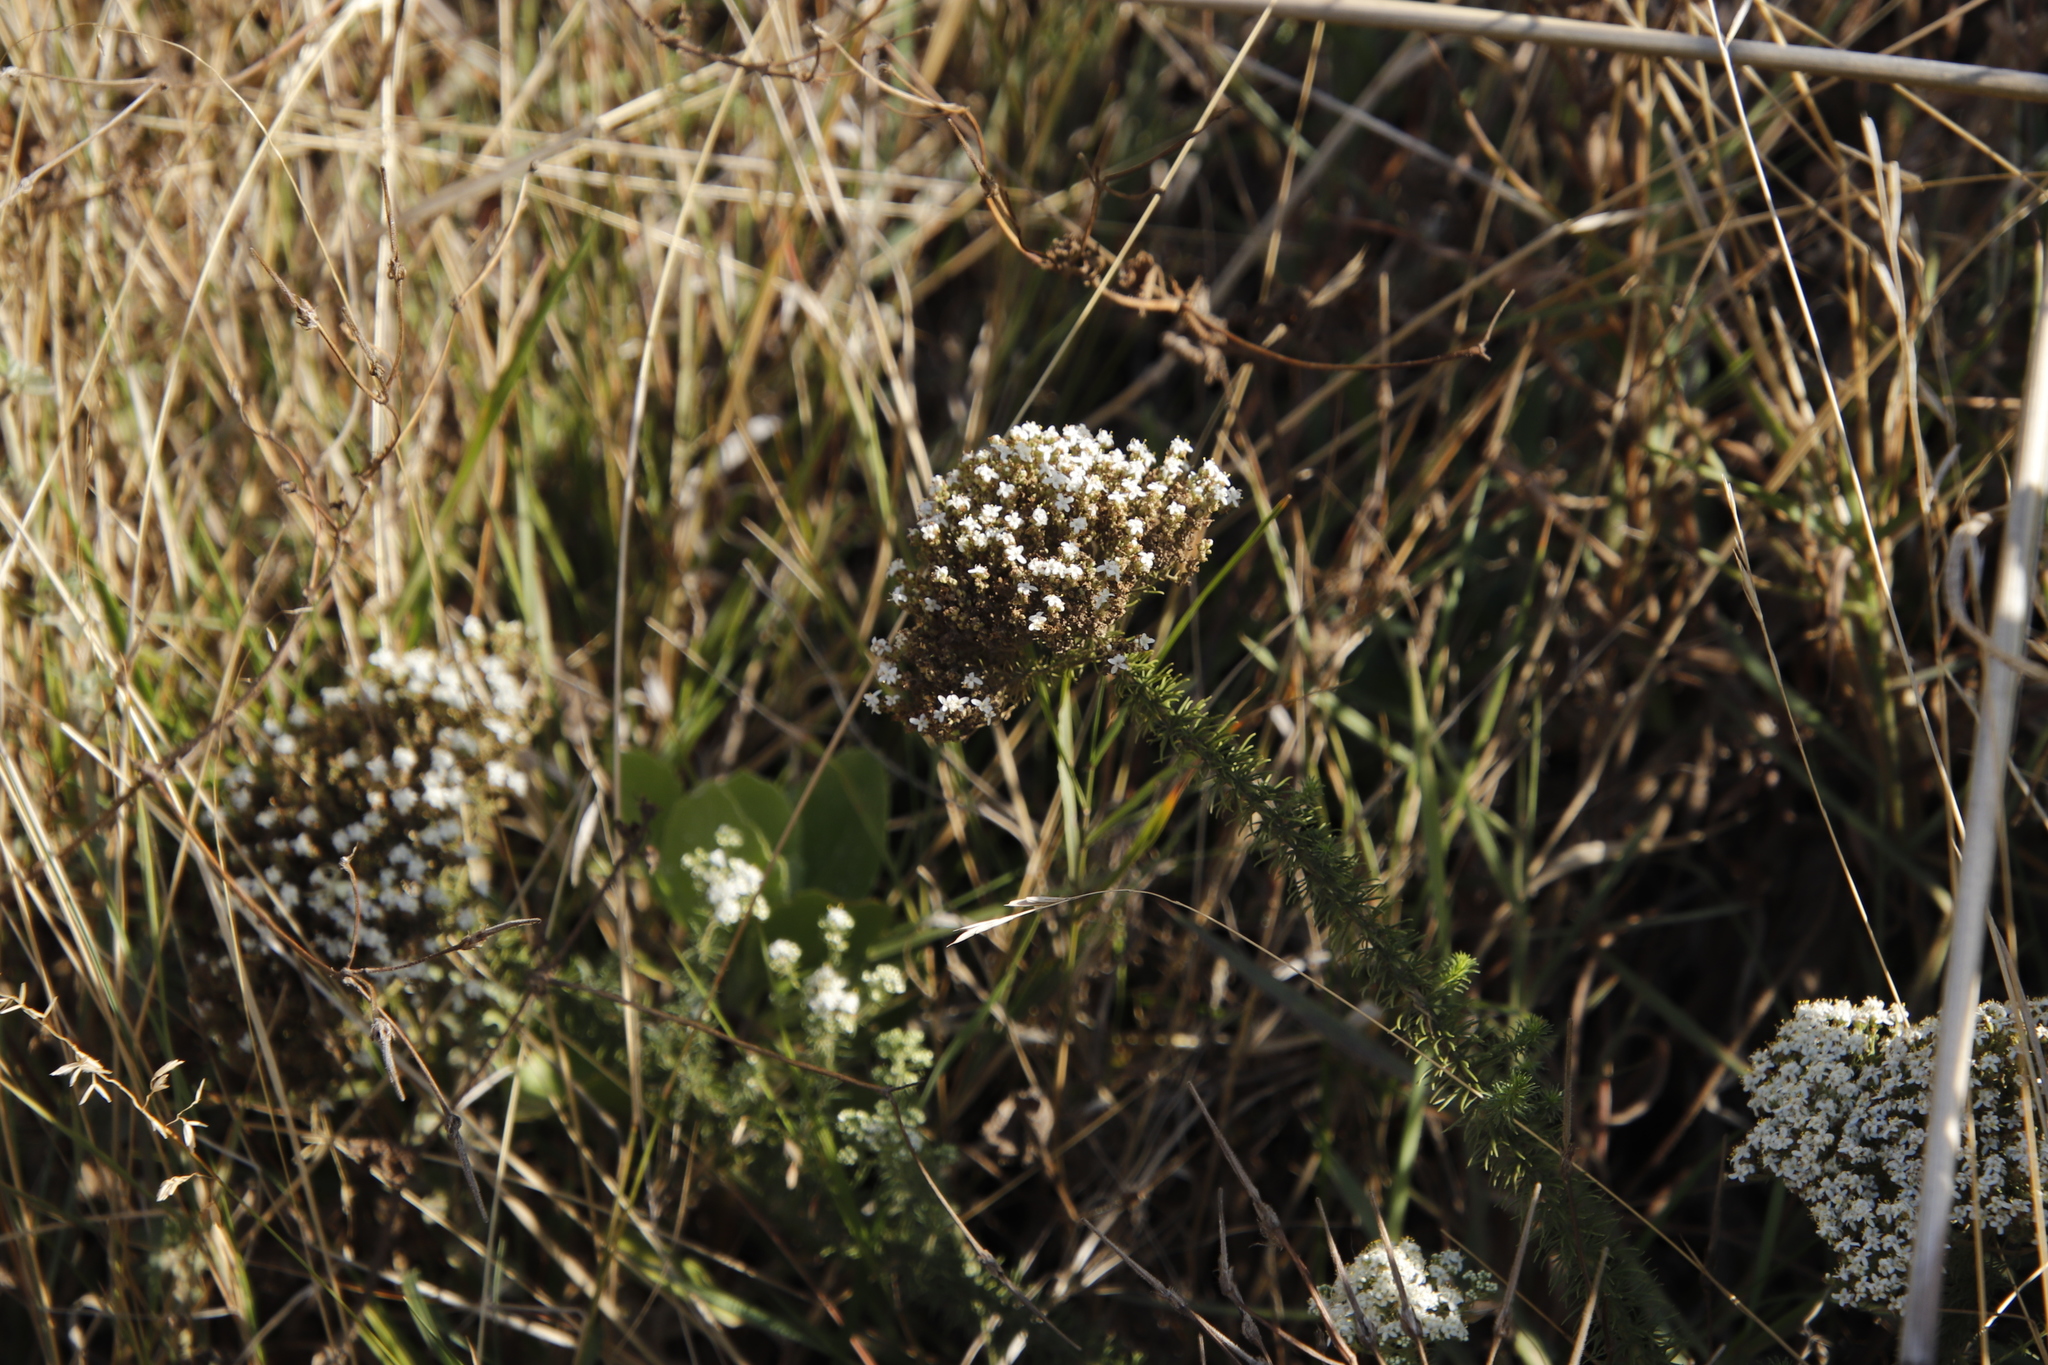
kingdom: Plantae
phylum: Tracheophyta
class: Magnoliopsida
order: Lamiales
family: Scrophulariaceae
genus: Selago
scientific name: Selago corymbosa
